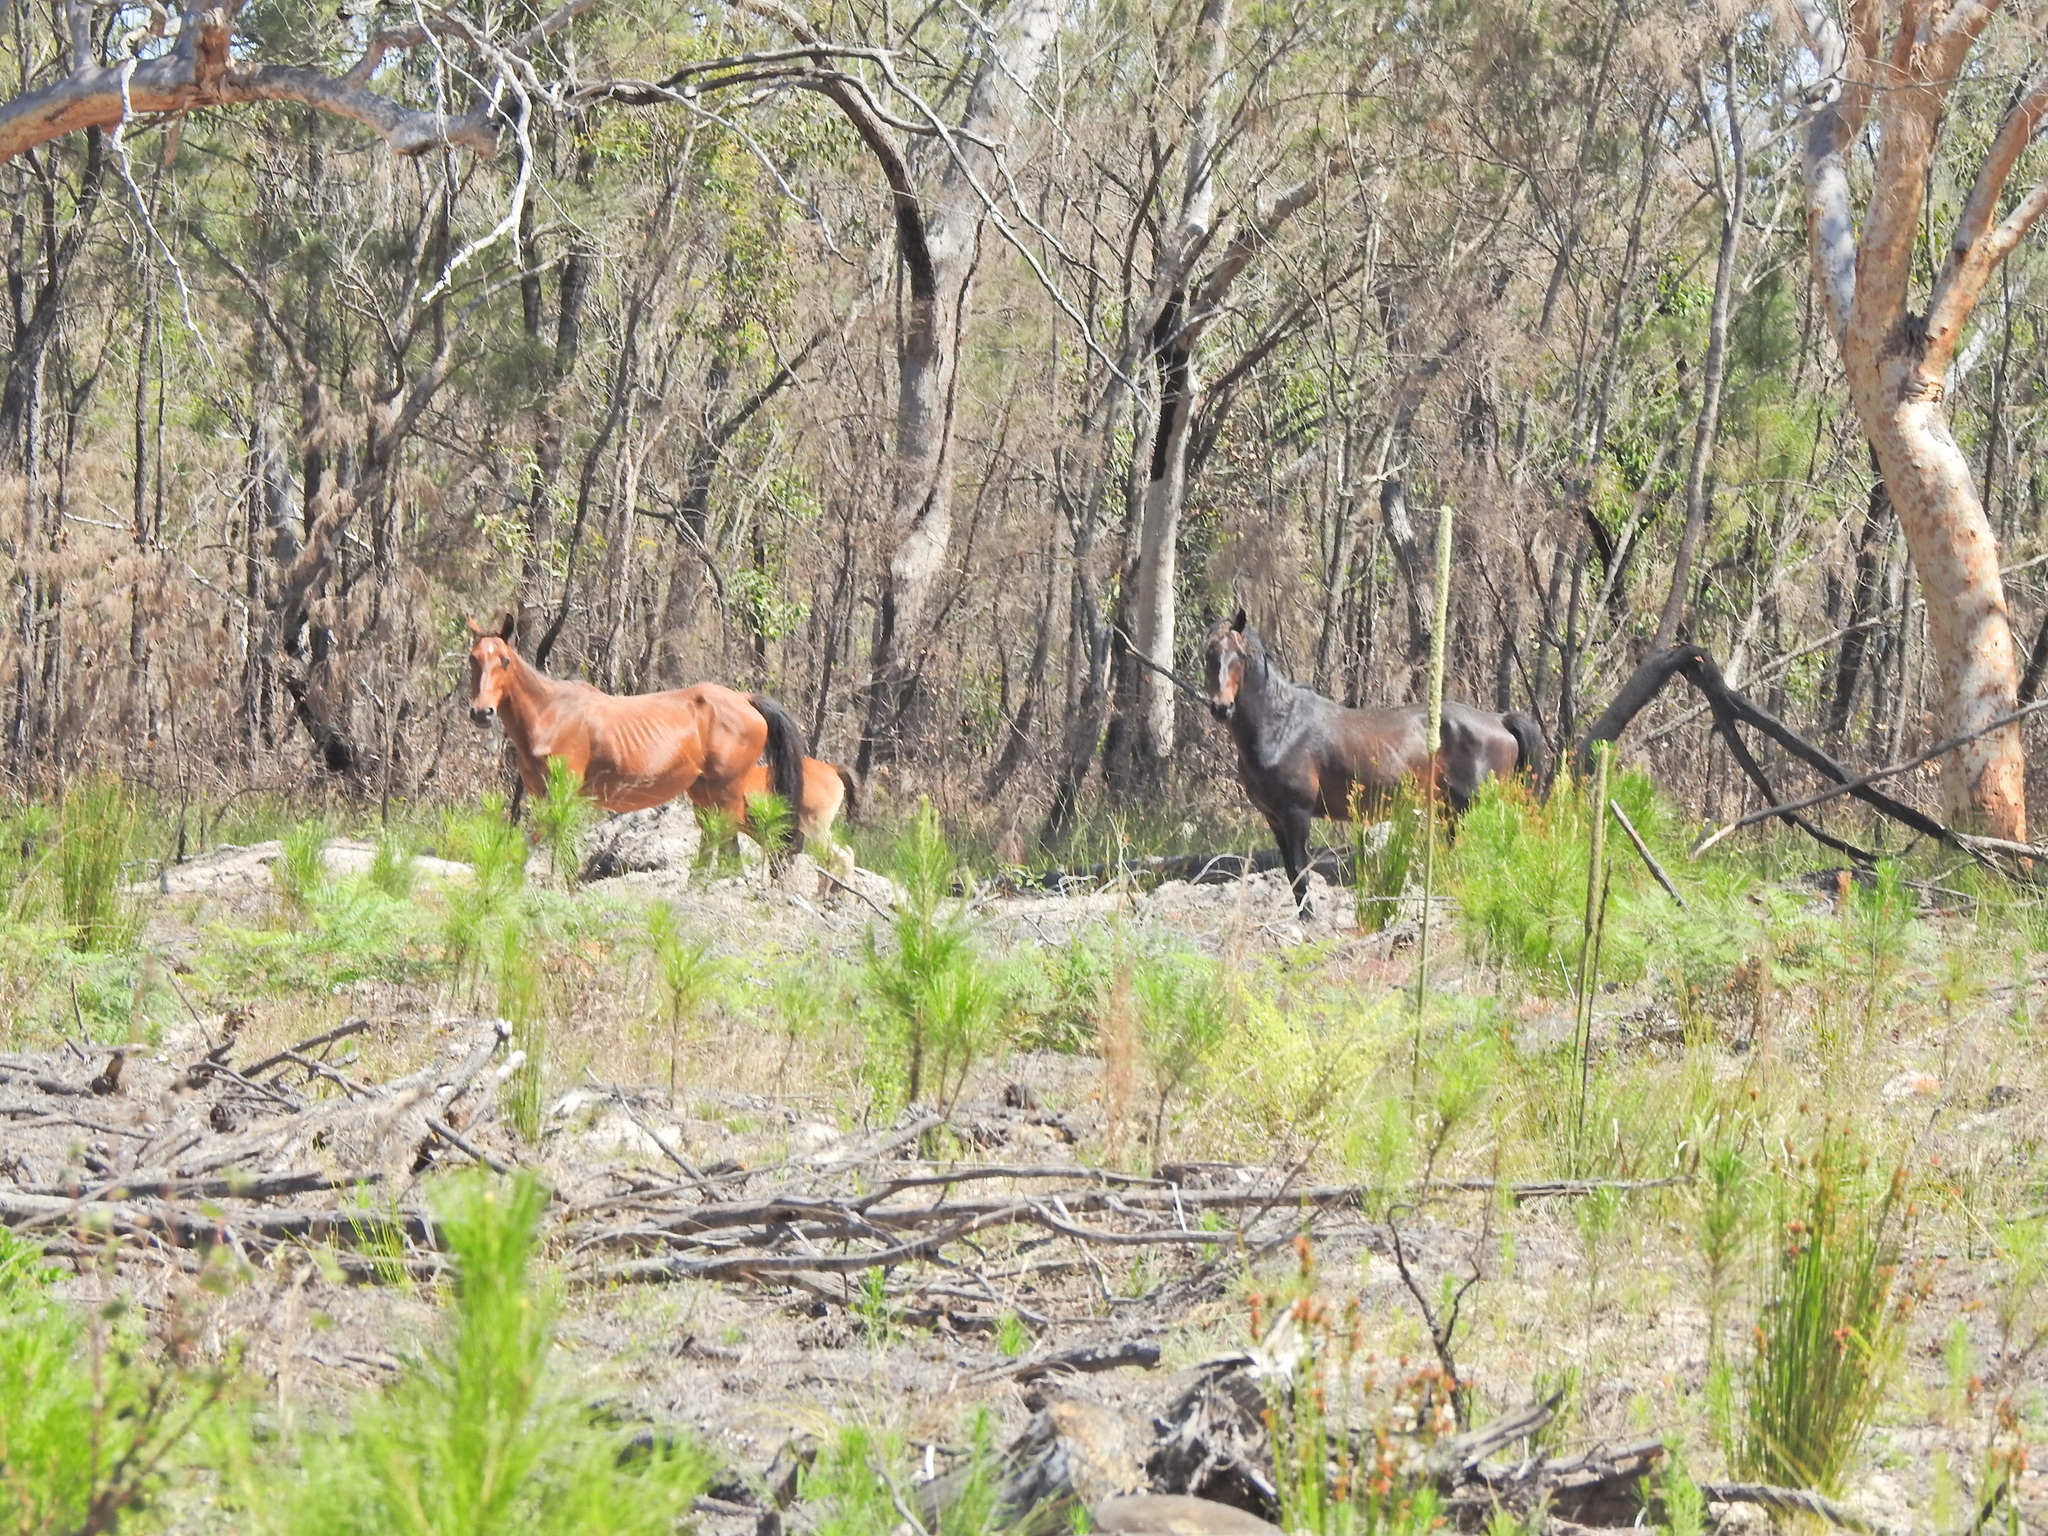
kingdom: Animalia
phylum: Chordata
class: Mammalia
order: Perissodactyla
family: Equidae
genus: Equus
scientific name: Equus caballus
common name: Horse
